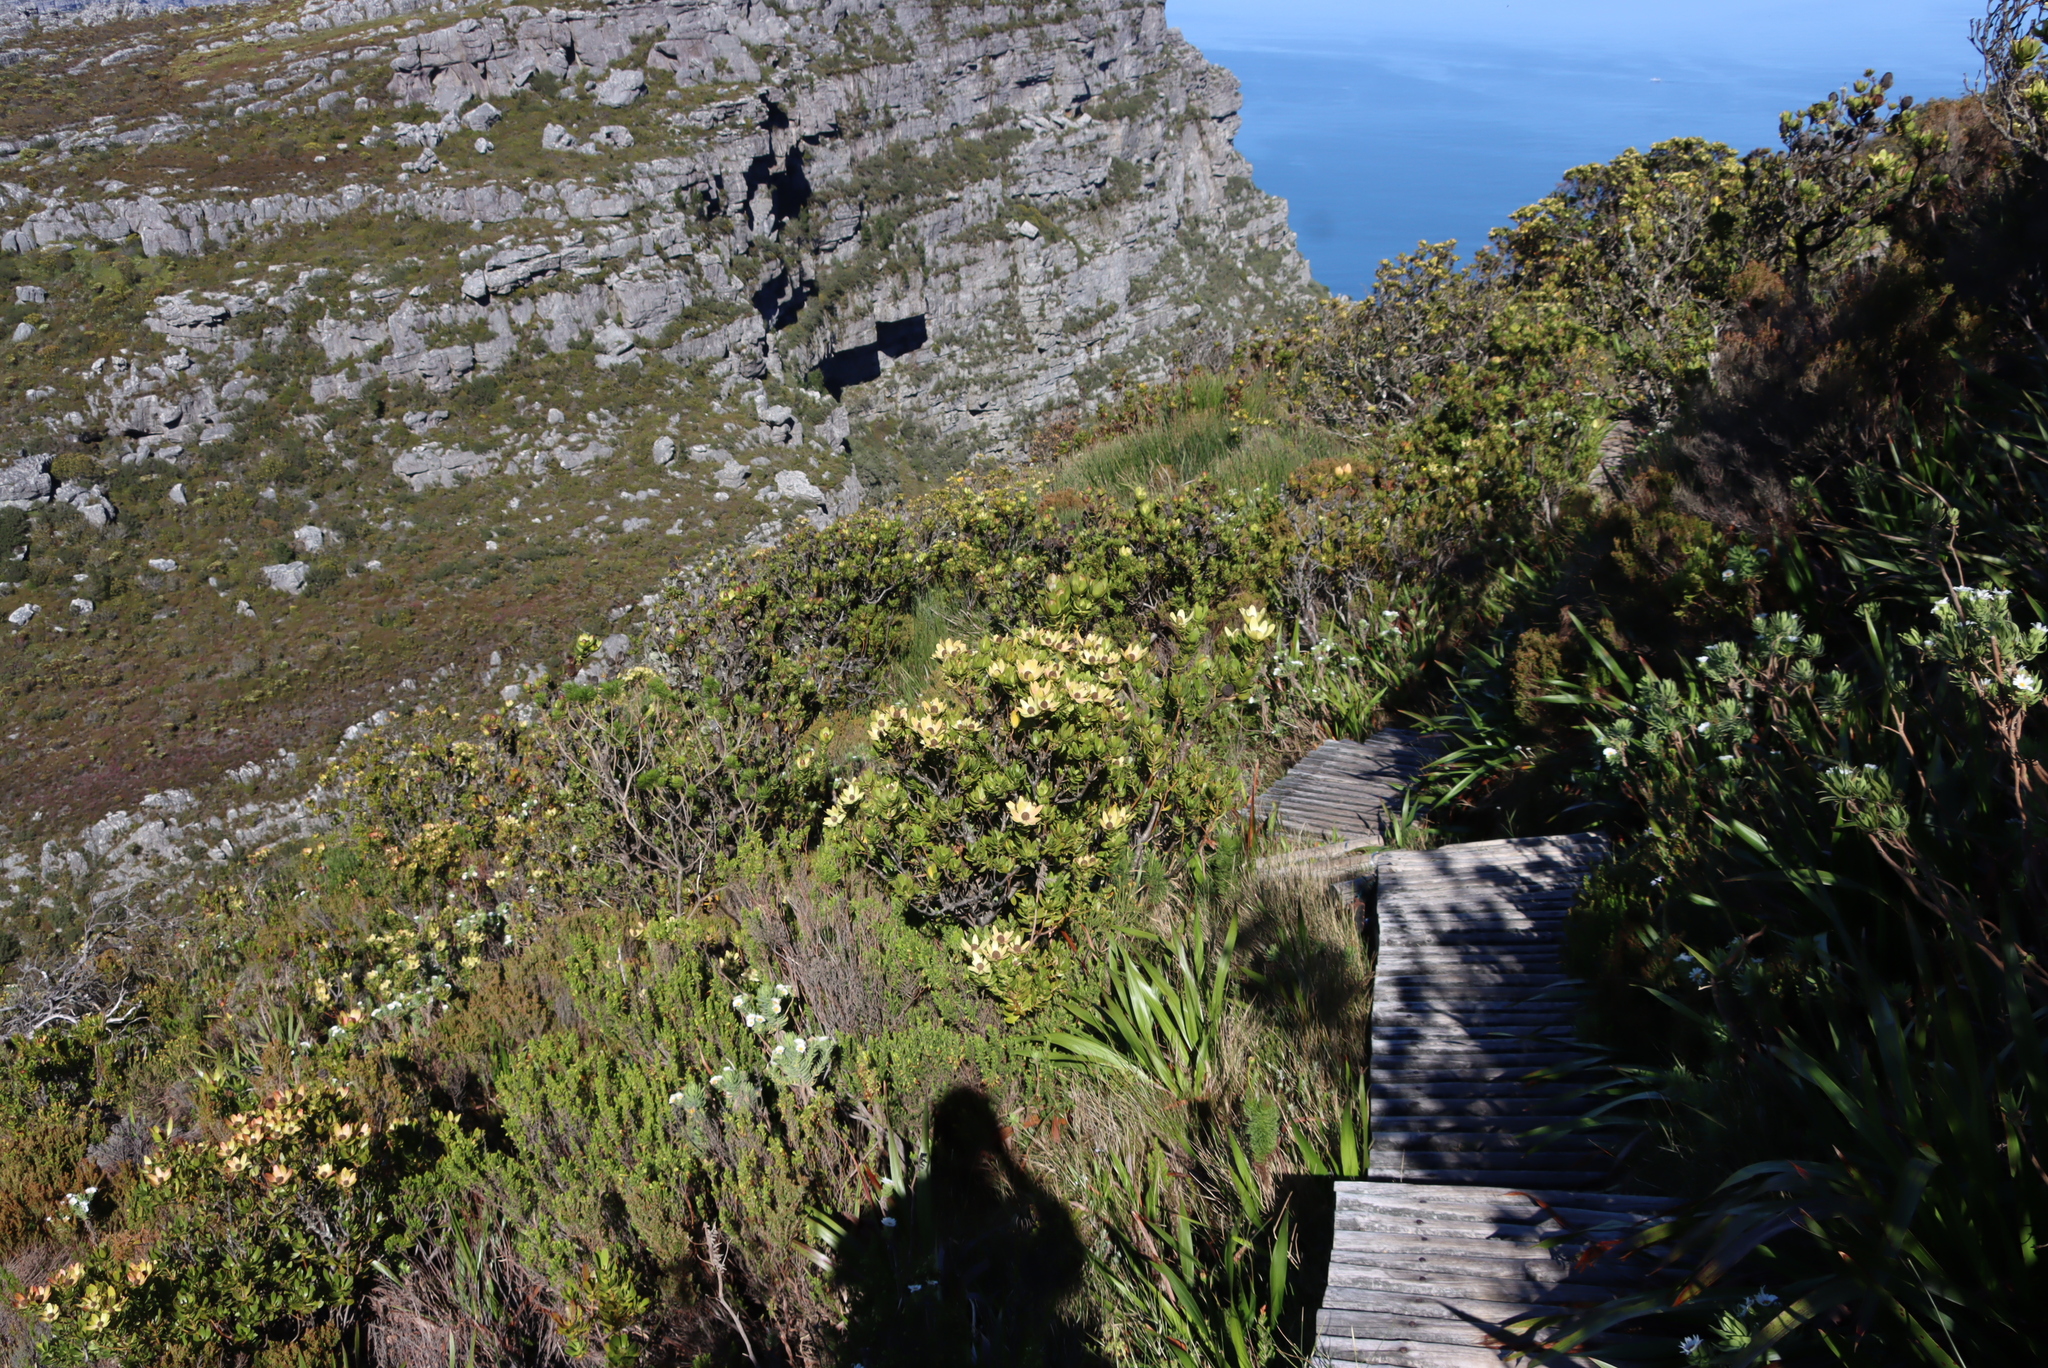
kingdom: Plantae
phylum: Tracheophyta
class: Magnoliopsida
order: Proteales
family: Proteaceae
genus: Leucadendron
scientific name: Leucadendron strobilinum
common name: Mountain rose
